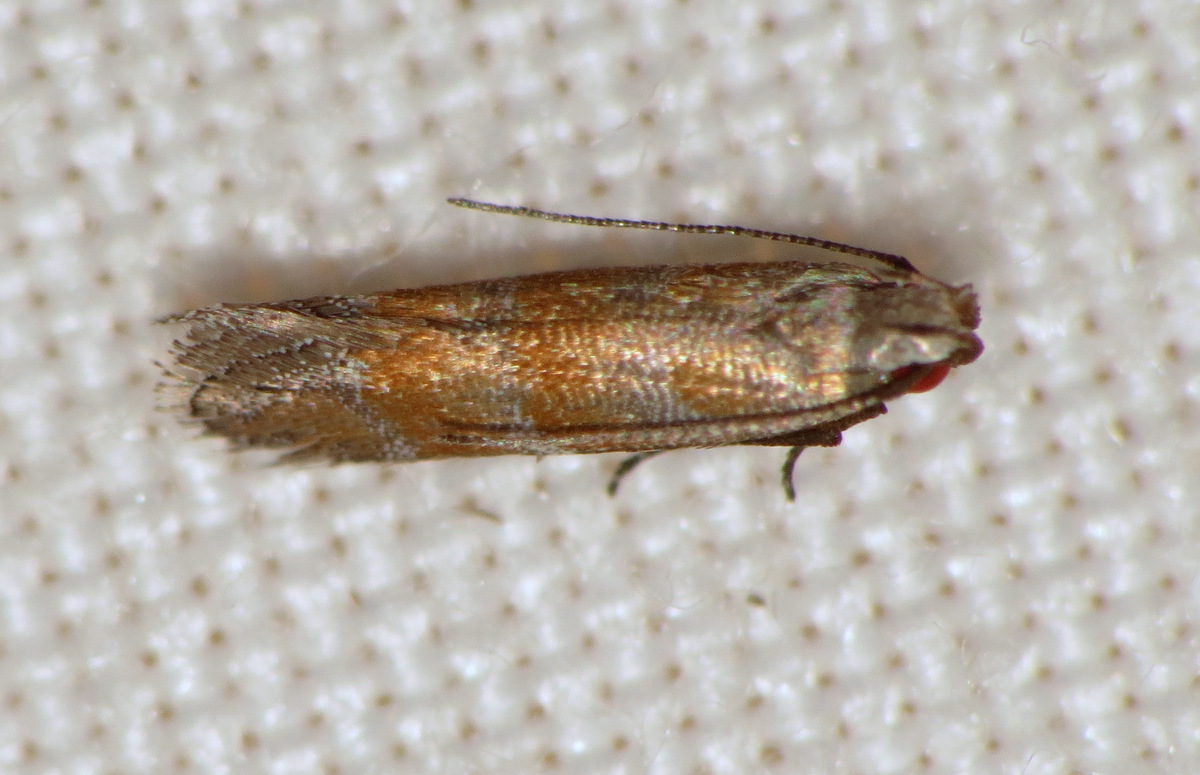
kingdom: Animalia
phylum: Arthropoda
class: Insecta
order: Lepidoptera
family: Gelechiidae
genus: Battaristis
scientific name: Battaristis vittella
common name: Orange stripe-backed moth
